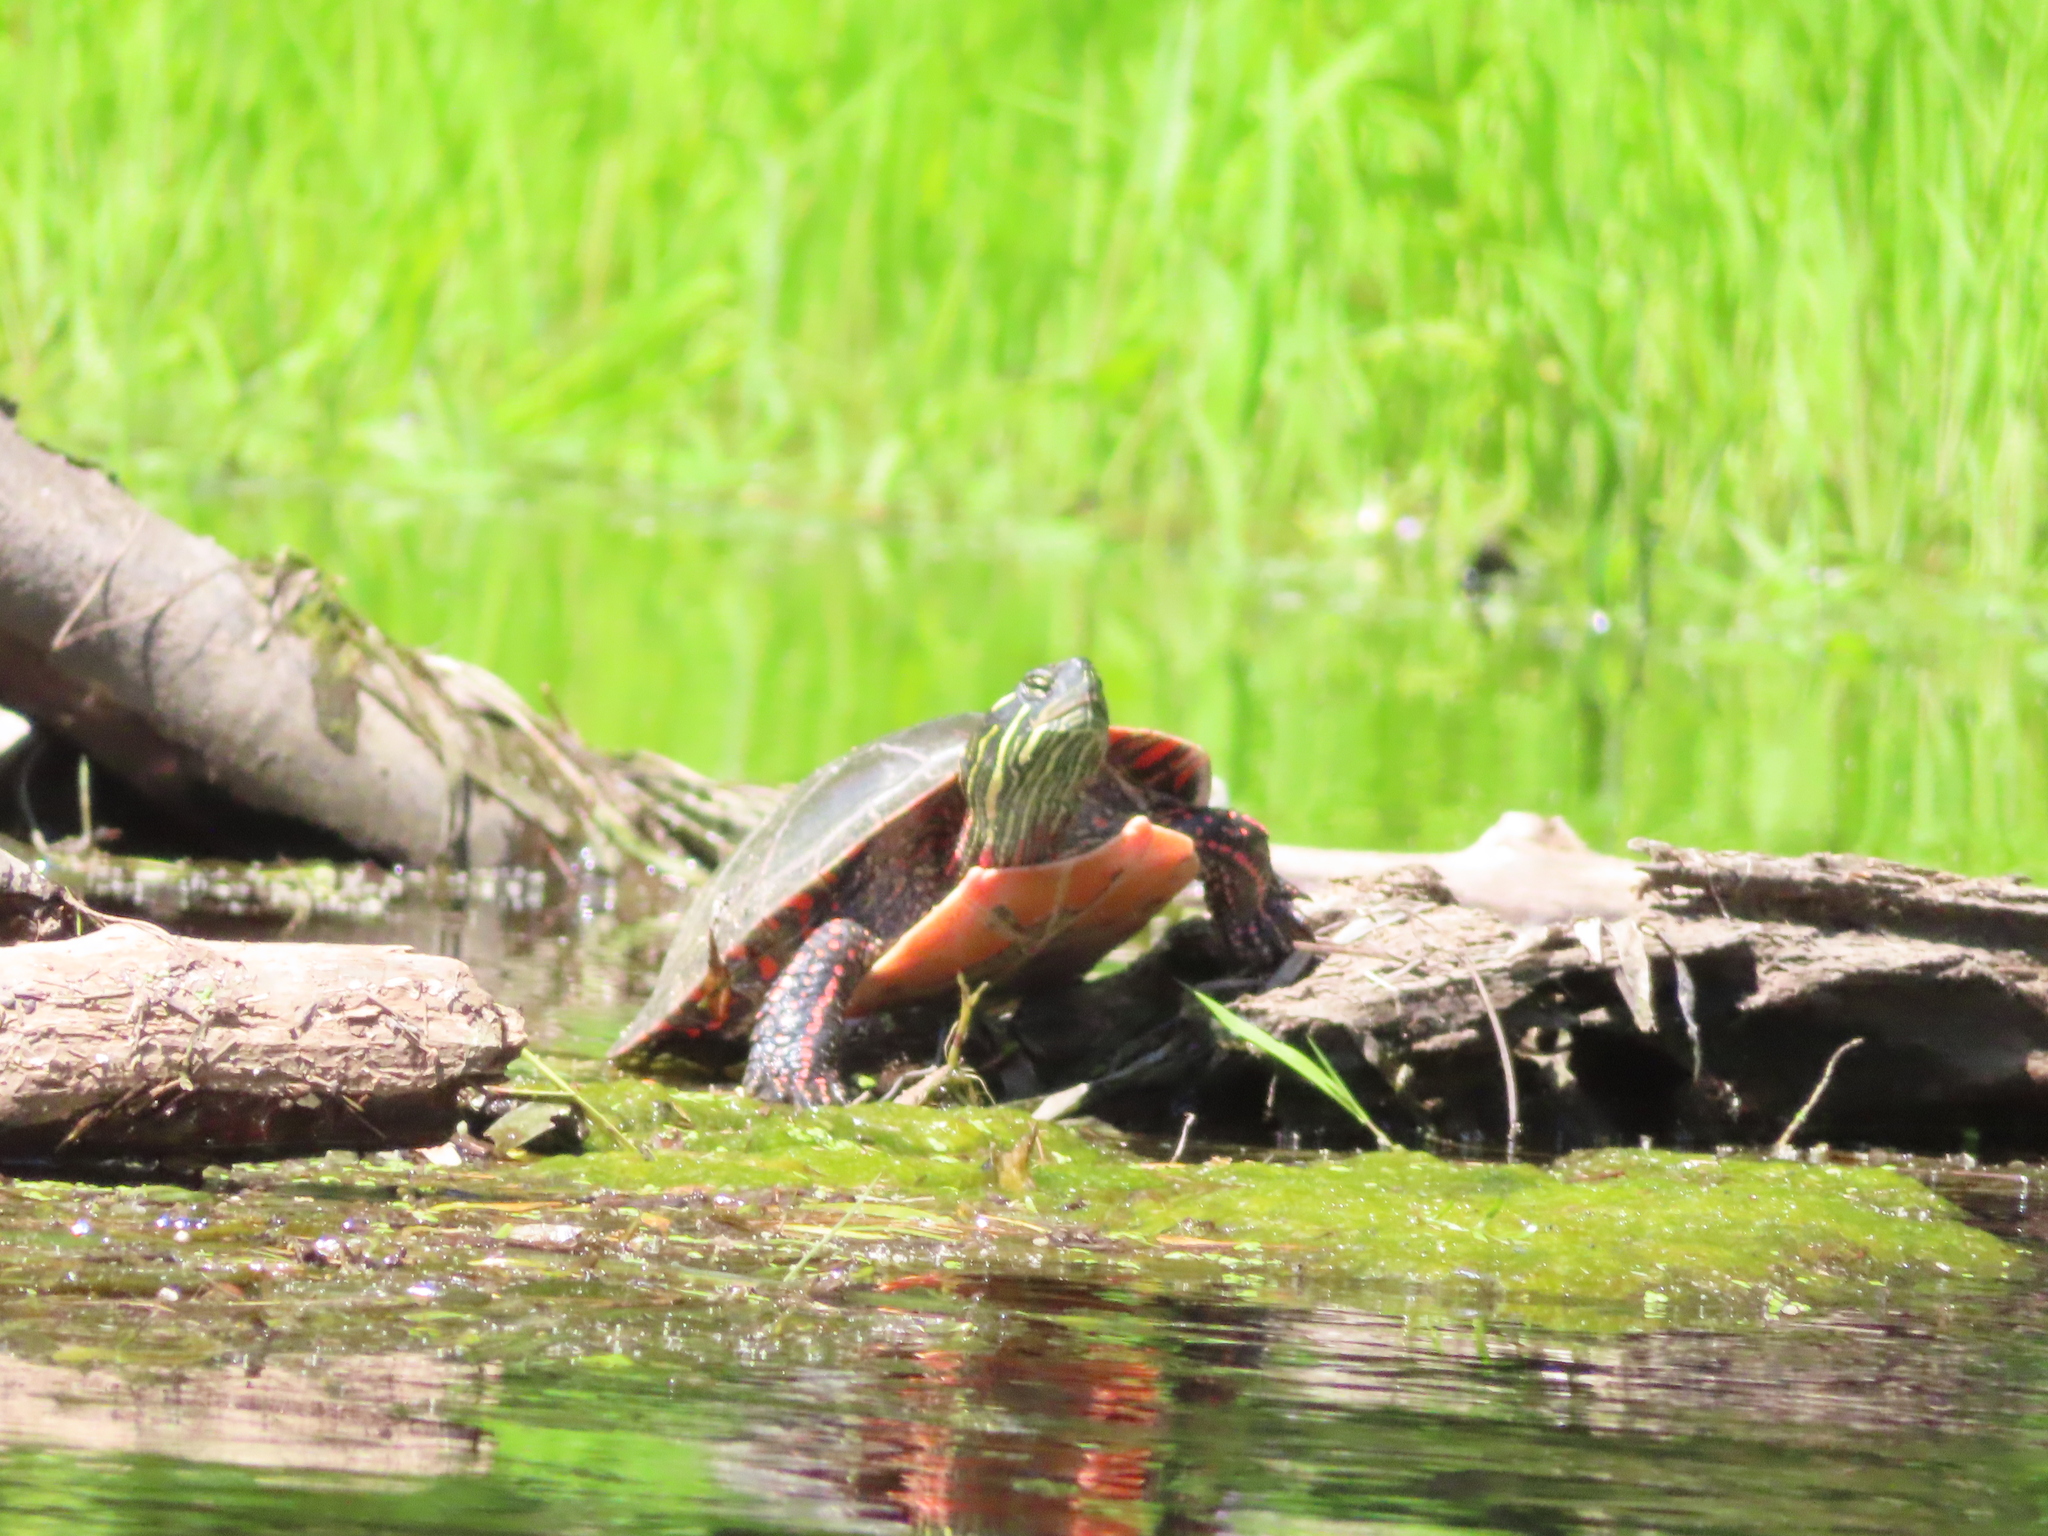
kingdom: Animalia
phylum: Chordata
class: Testudines
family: Emydidae
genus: Chrysemys
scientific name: Chrysemys picta
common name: Painted turtle
